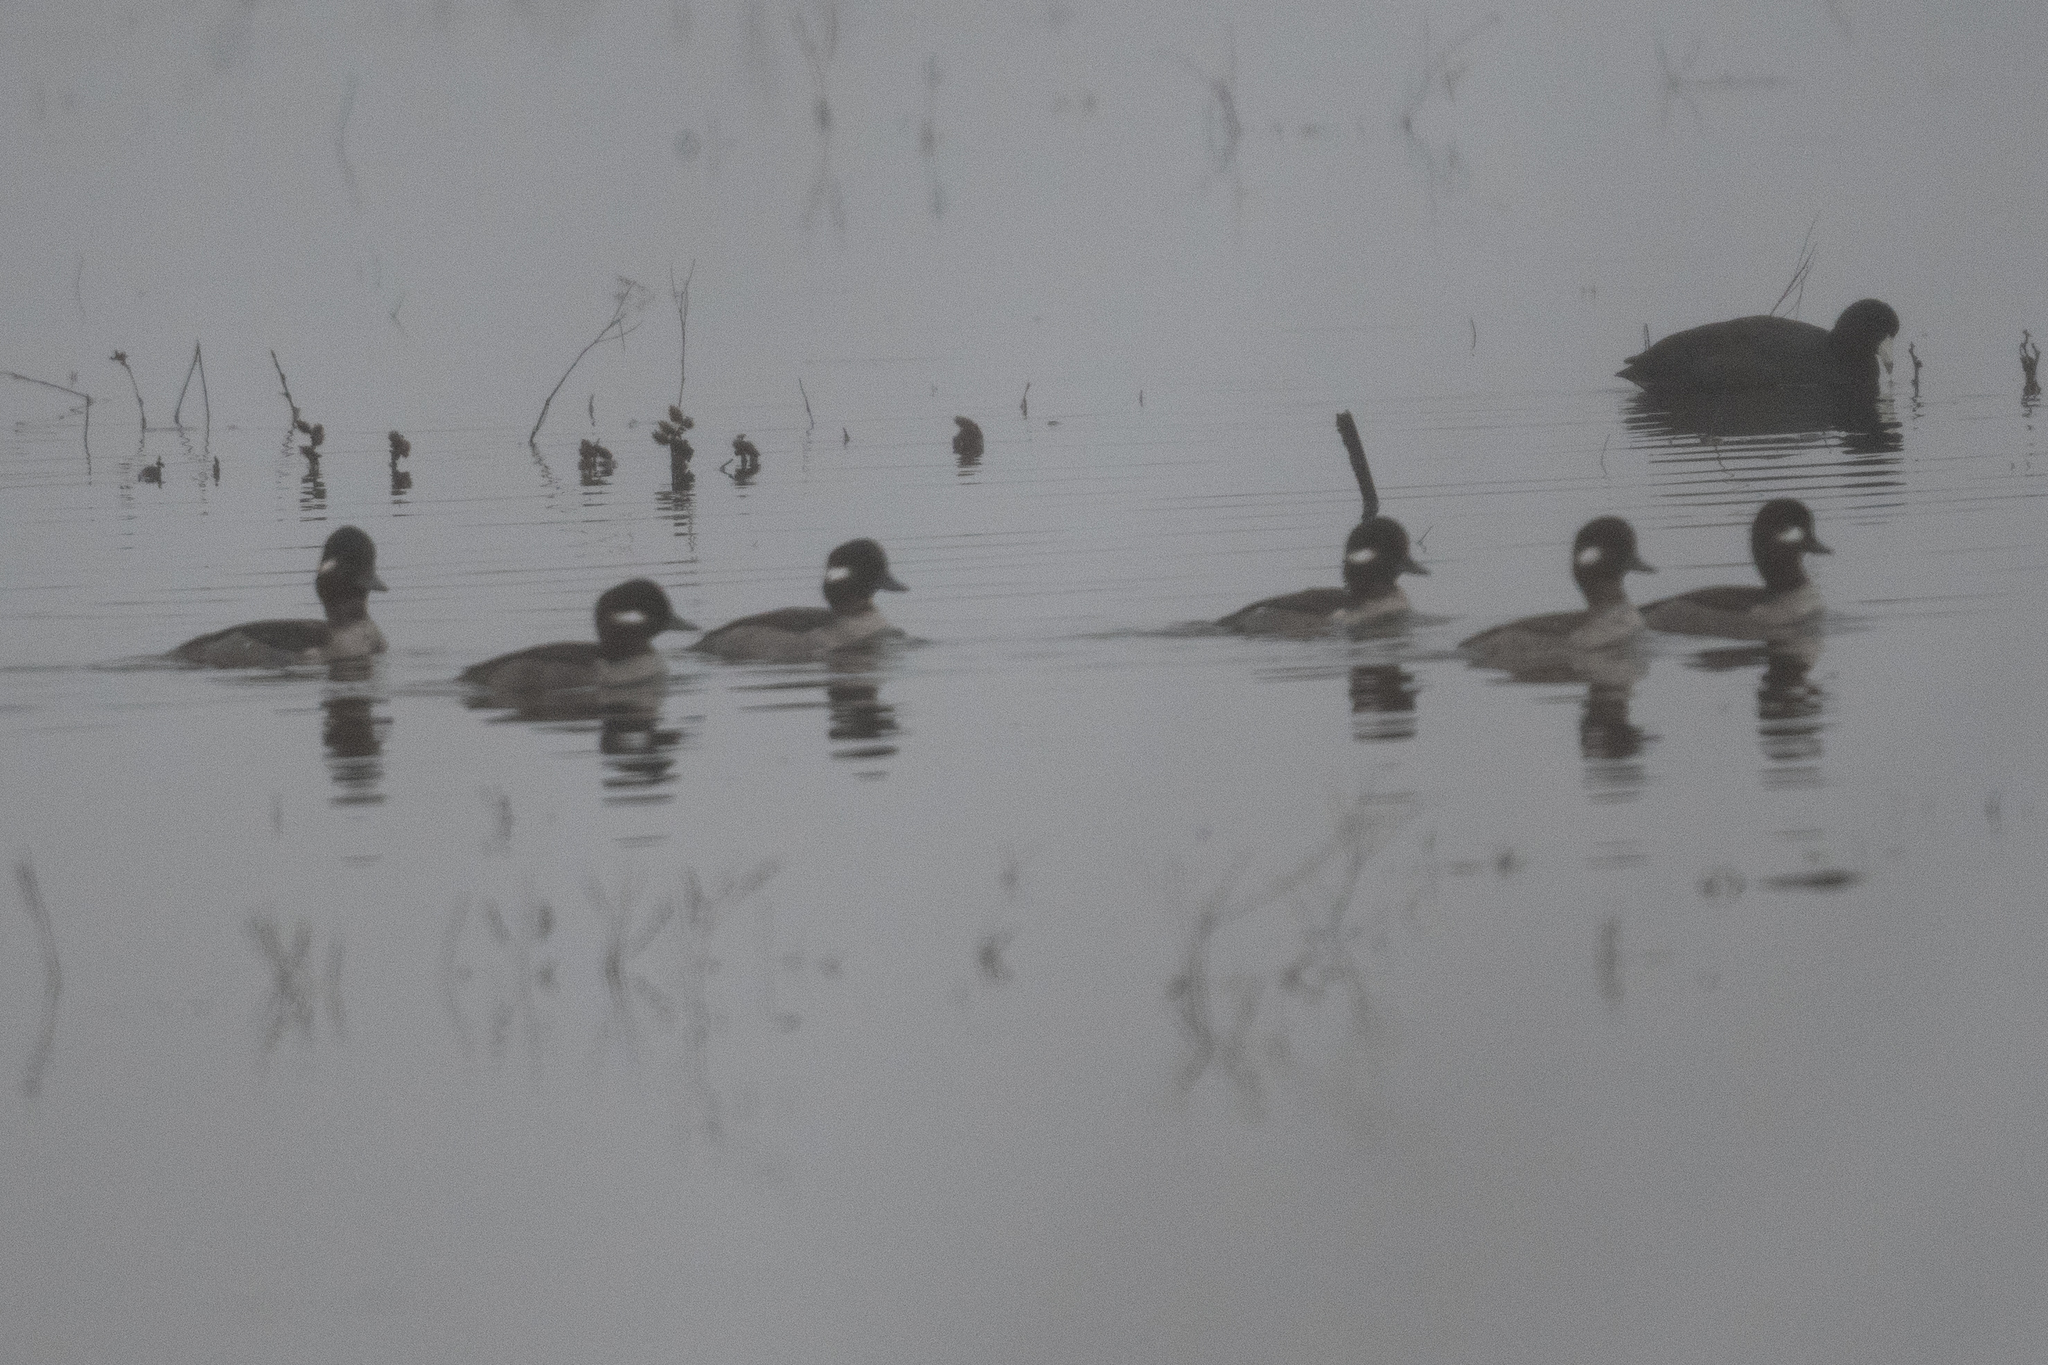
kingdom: Animalia
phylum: Chordata
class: Aves
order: Anseriformes
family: Anatidae
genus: Bucephala
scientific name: Bucephala albeola
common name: Bufflehead
